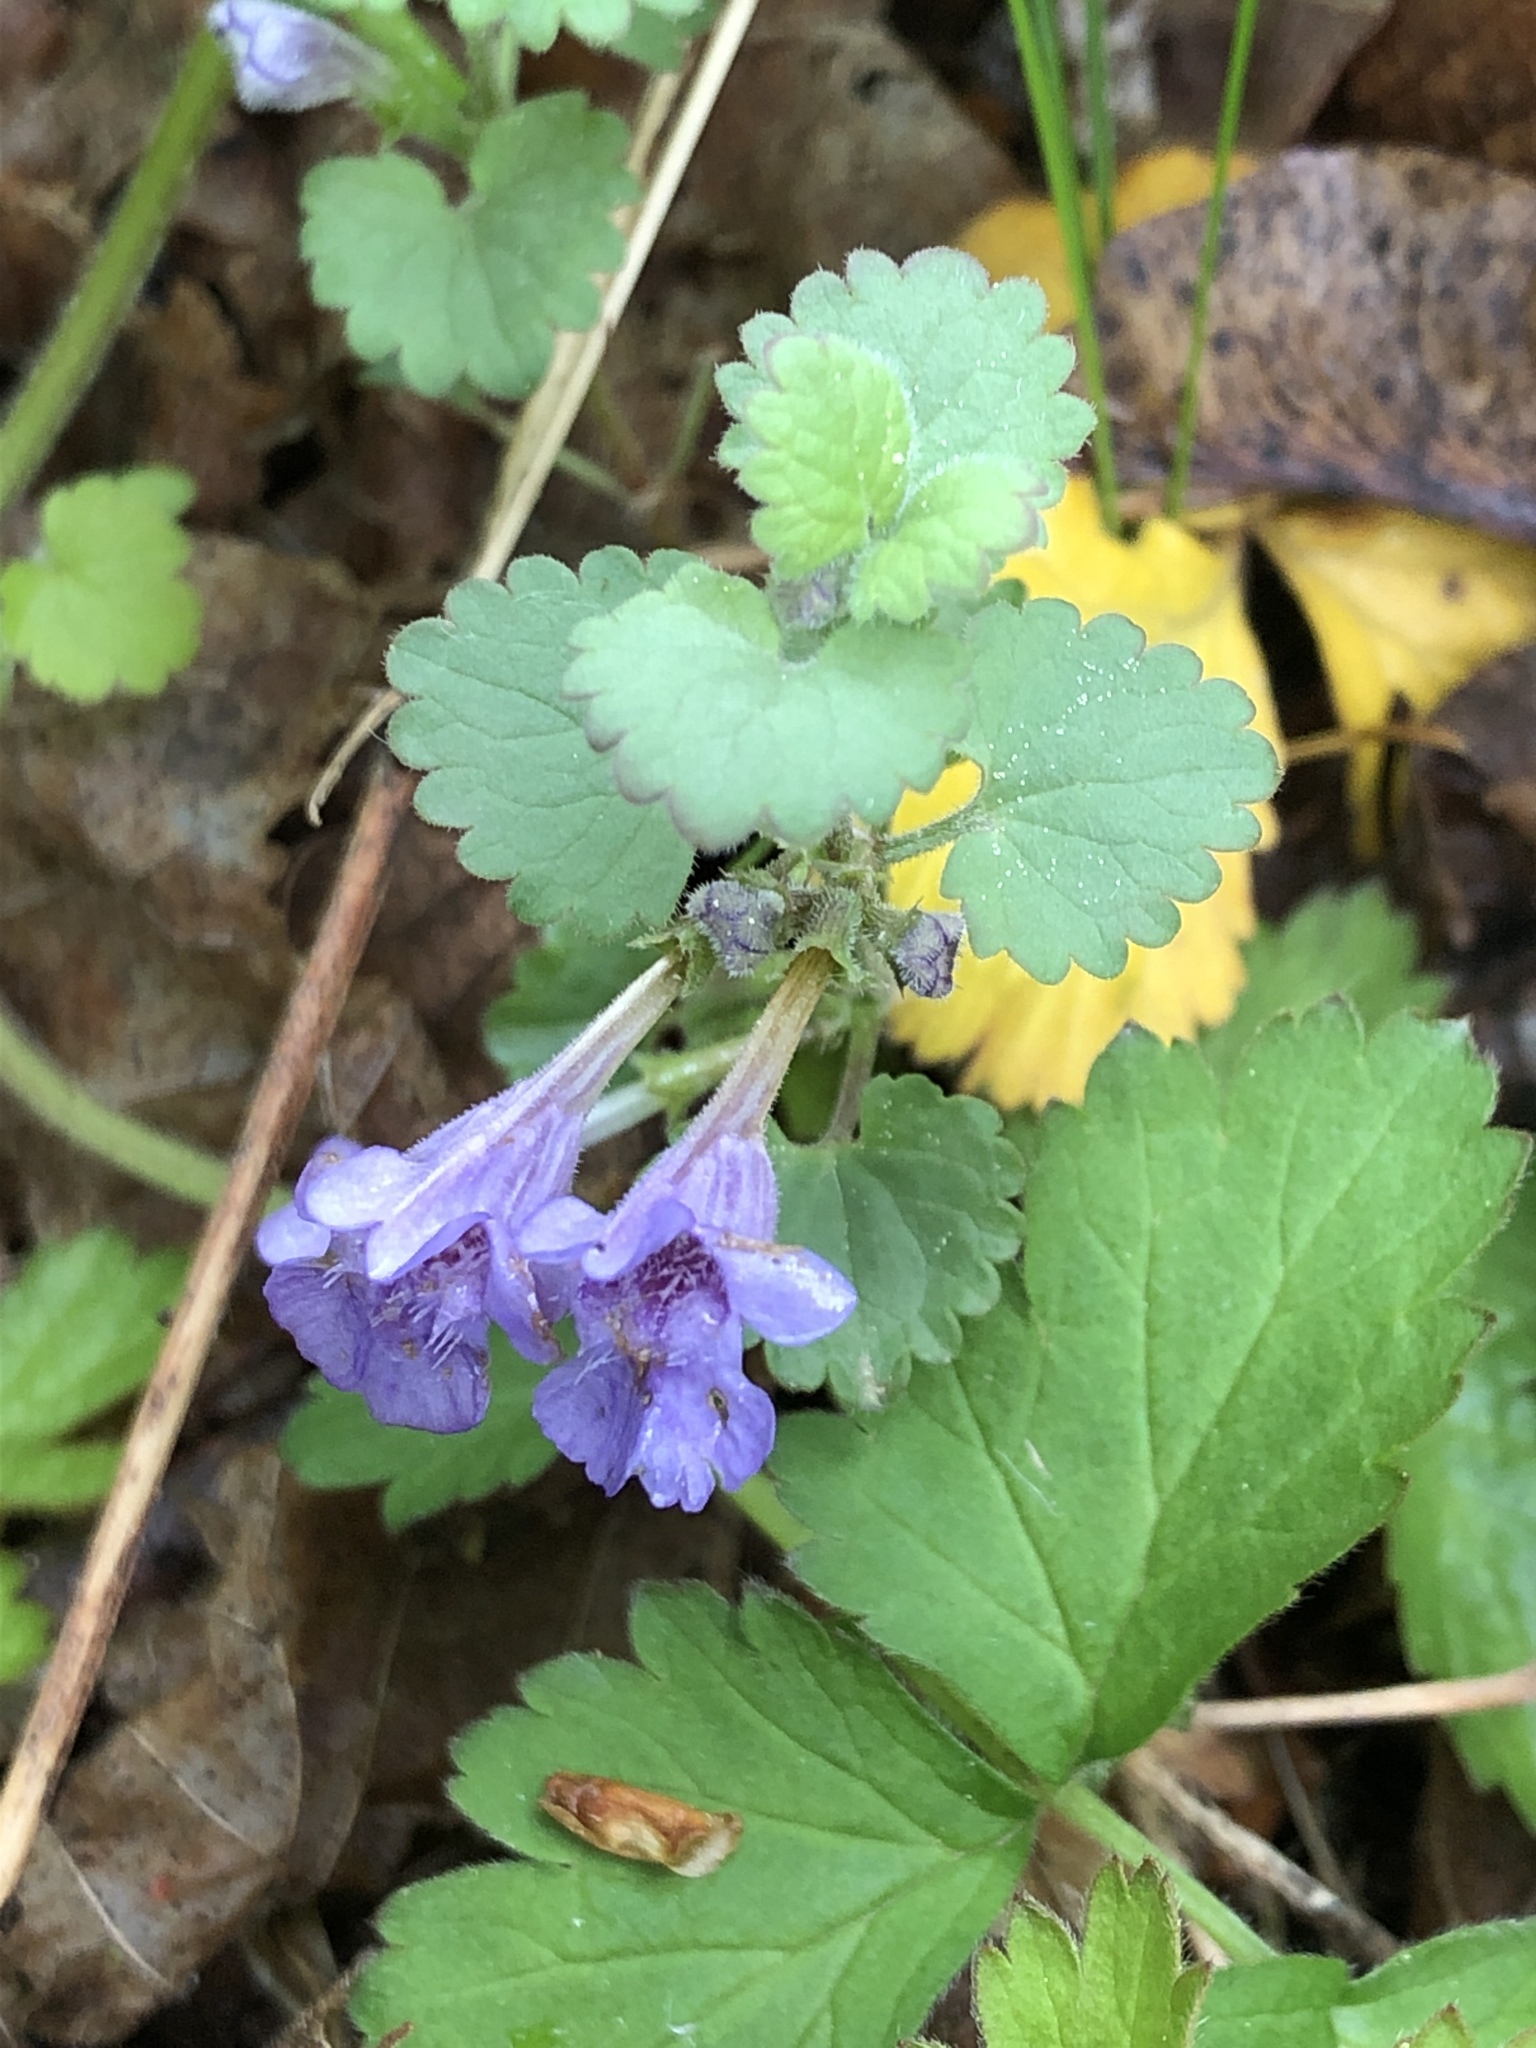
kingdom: Plantae
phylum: Tracheophyta
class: Magnoliopsida
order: Lamiales
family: Lamiaceae
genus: Glechoma
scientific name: Glechoma hederacea
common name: Ground ivy
